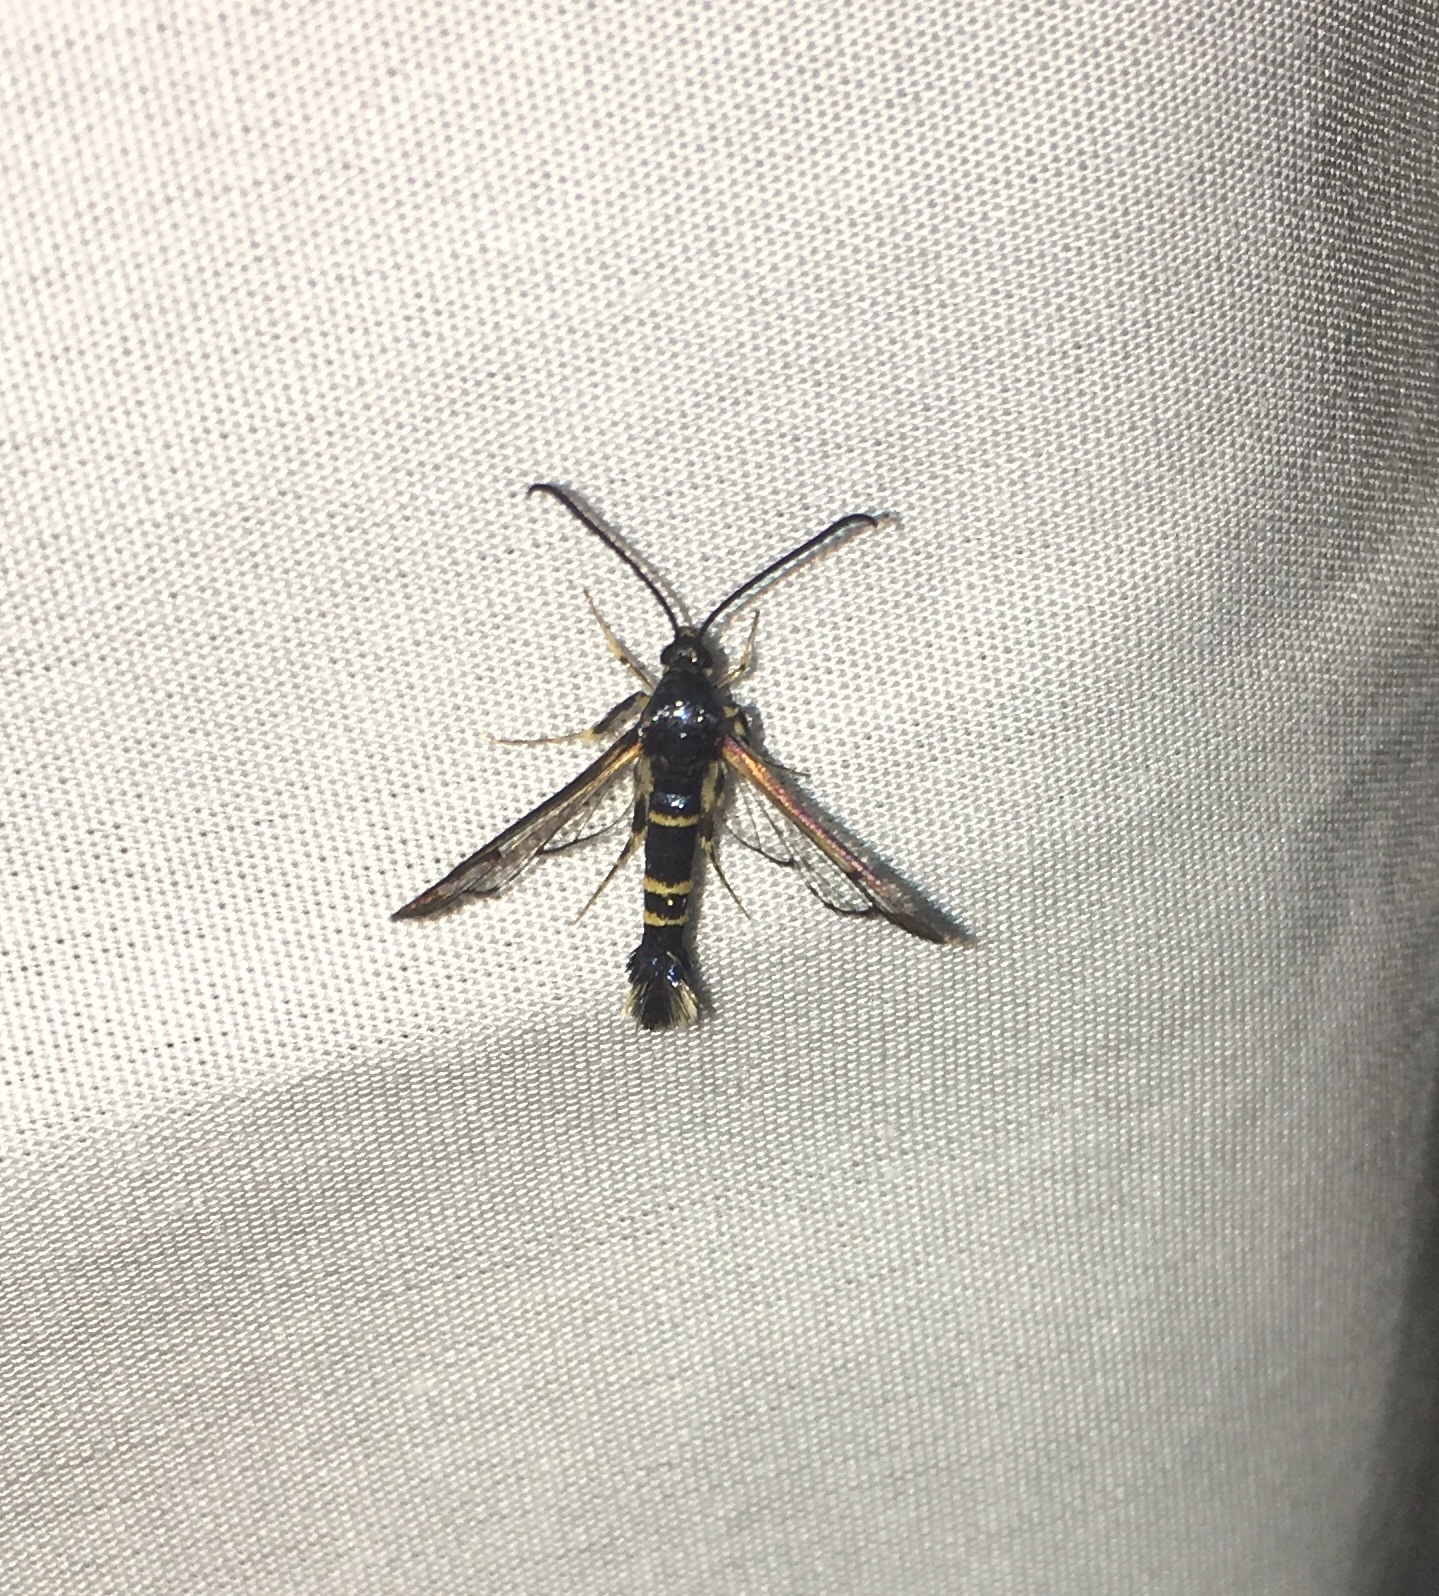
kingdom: Animalia
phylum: Arthropoda
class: Insecta
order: Lepidoptera
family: Sesiidae
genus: Synanthedon
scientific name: Synanthedon rhododendri
